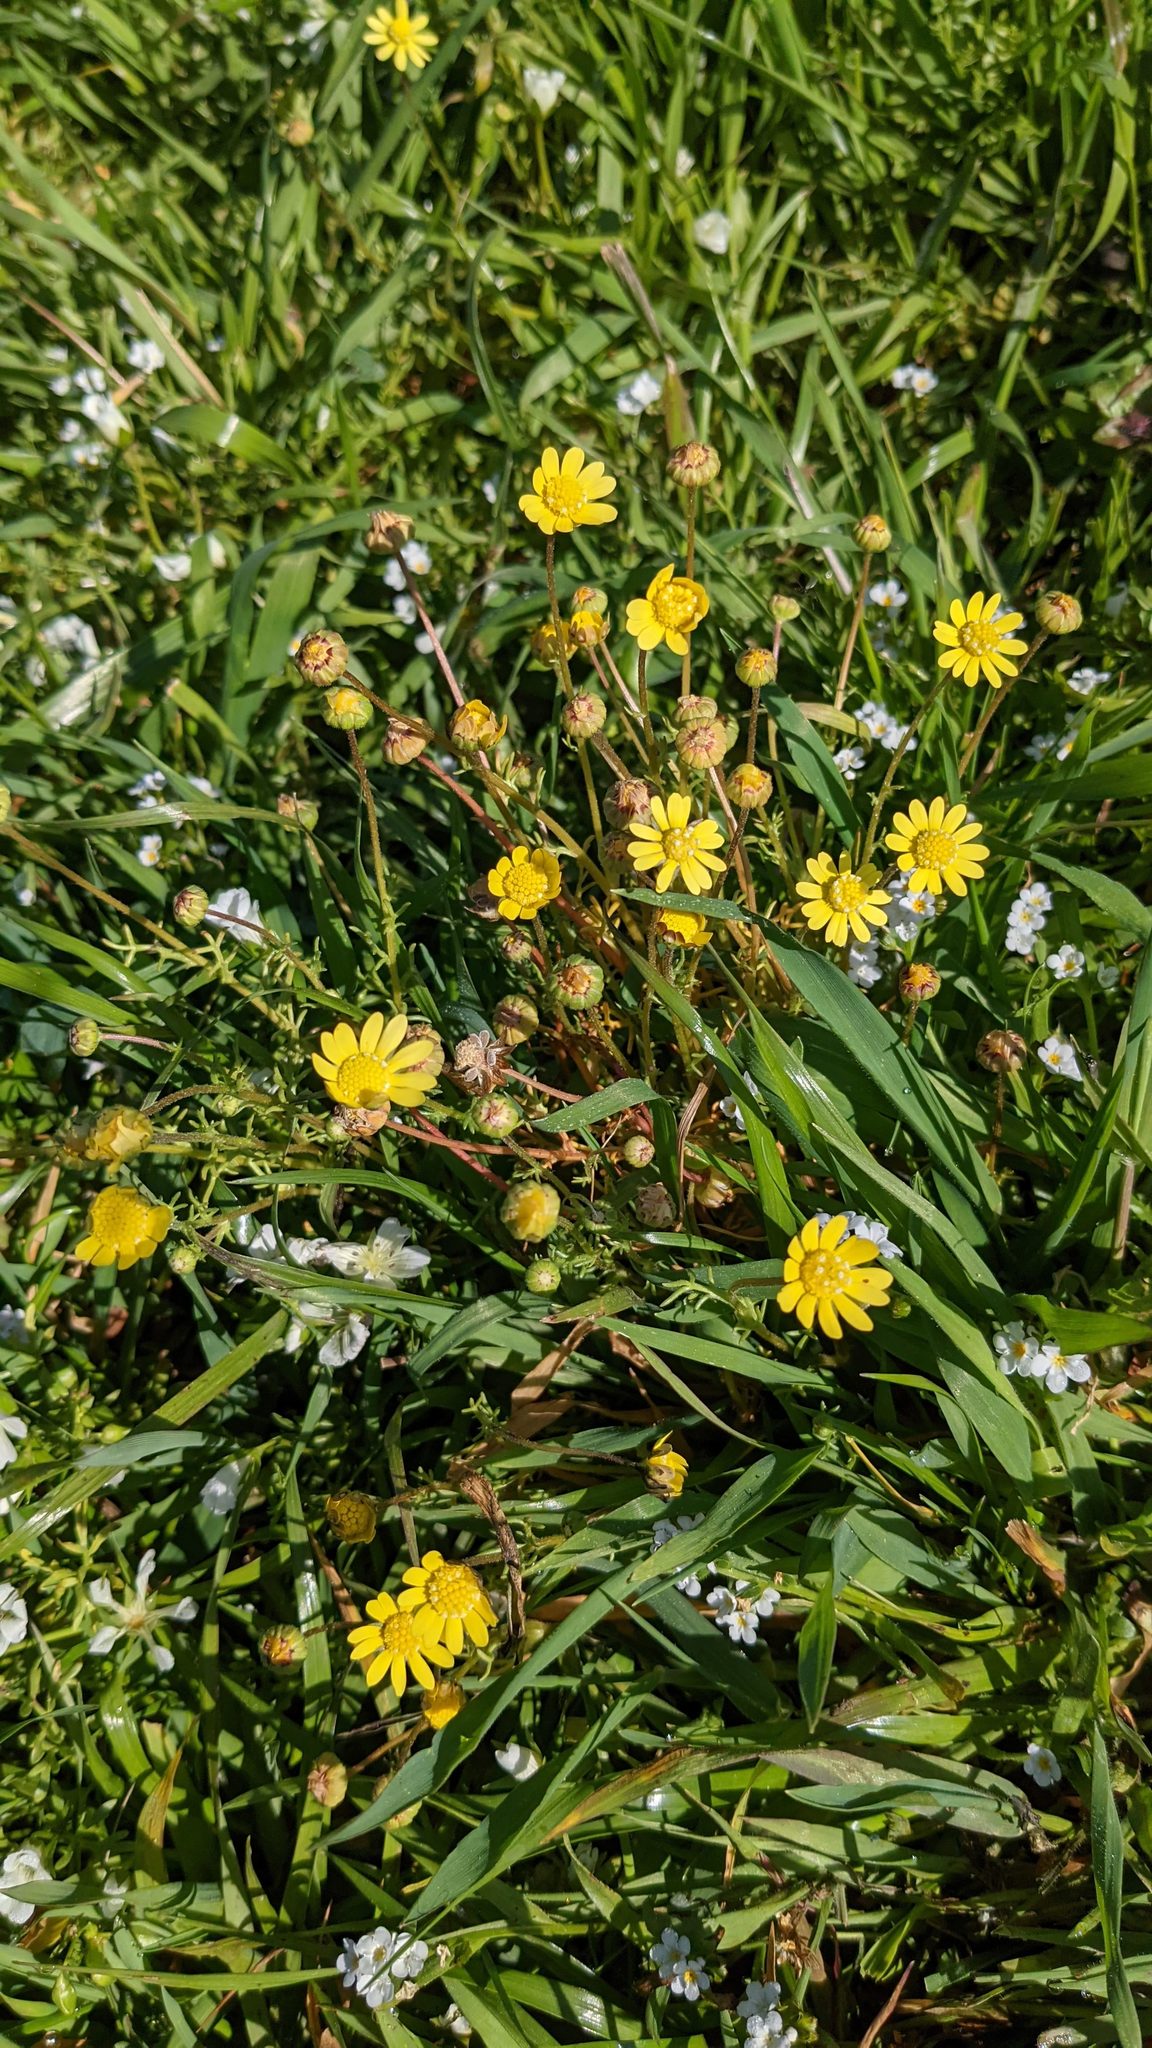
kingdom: Plantae
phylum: Tracheophyta
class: Magnoliopsida
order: Asterales
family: Asteraceae
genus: Blennosperma
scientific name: Blennosperma nanum
